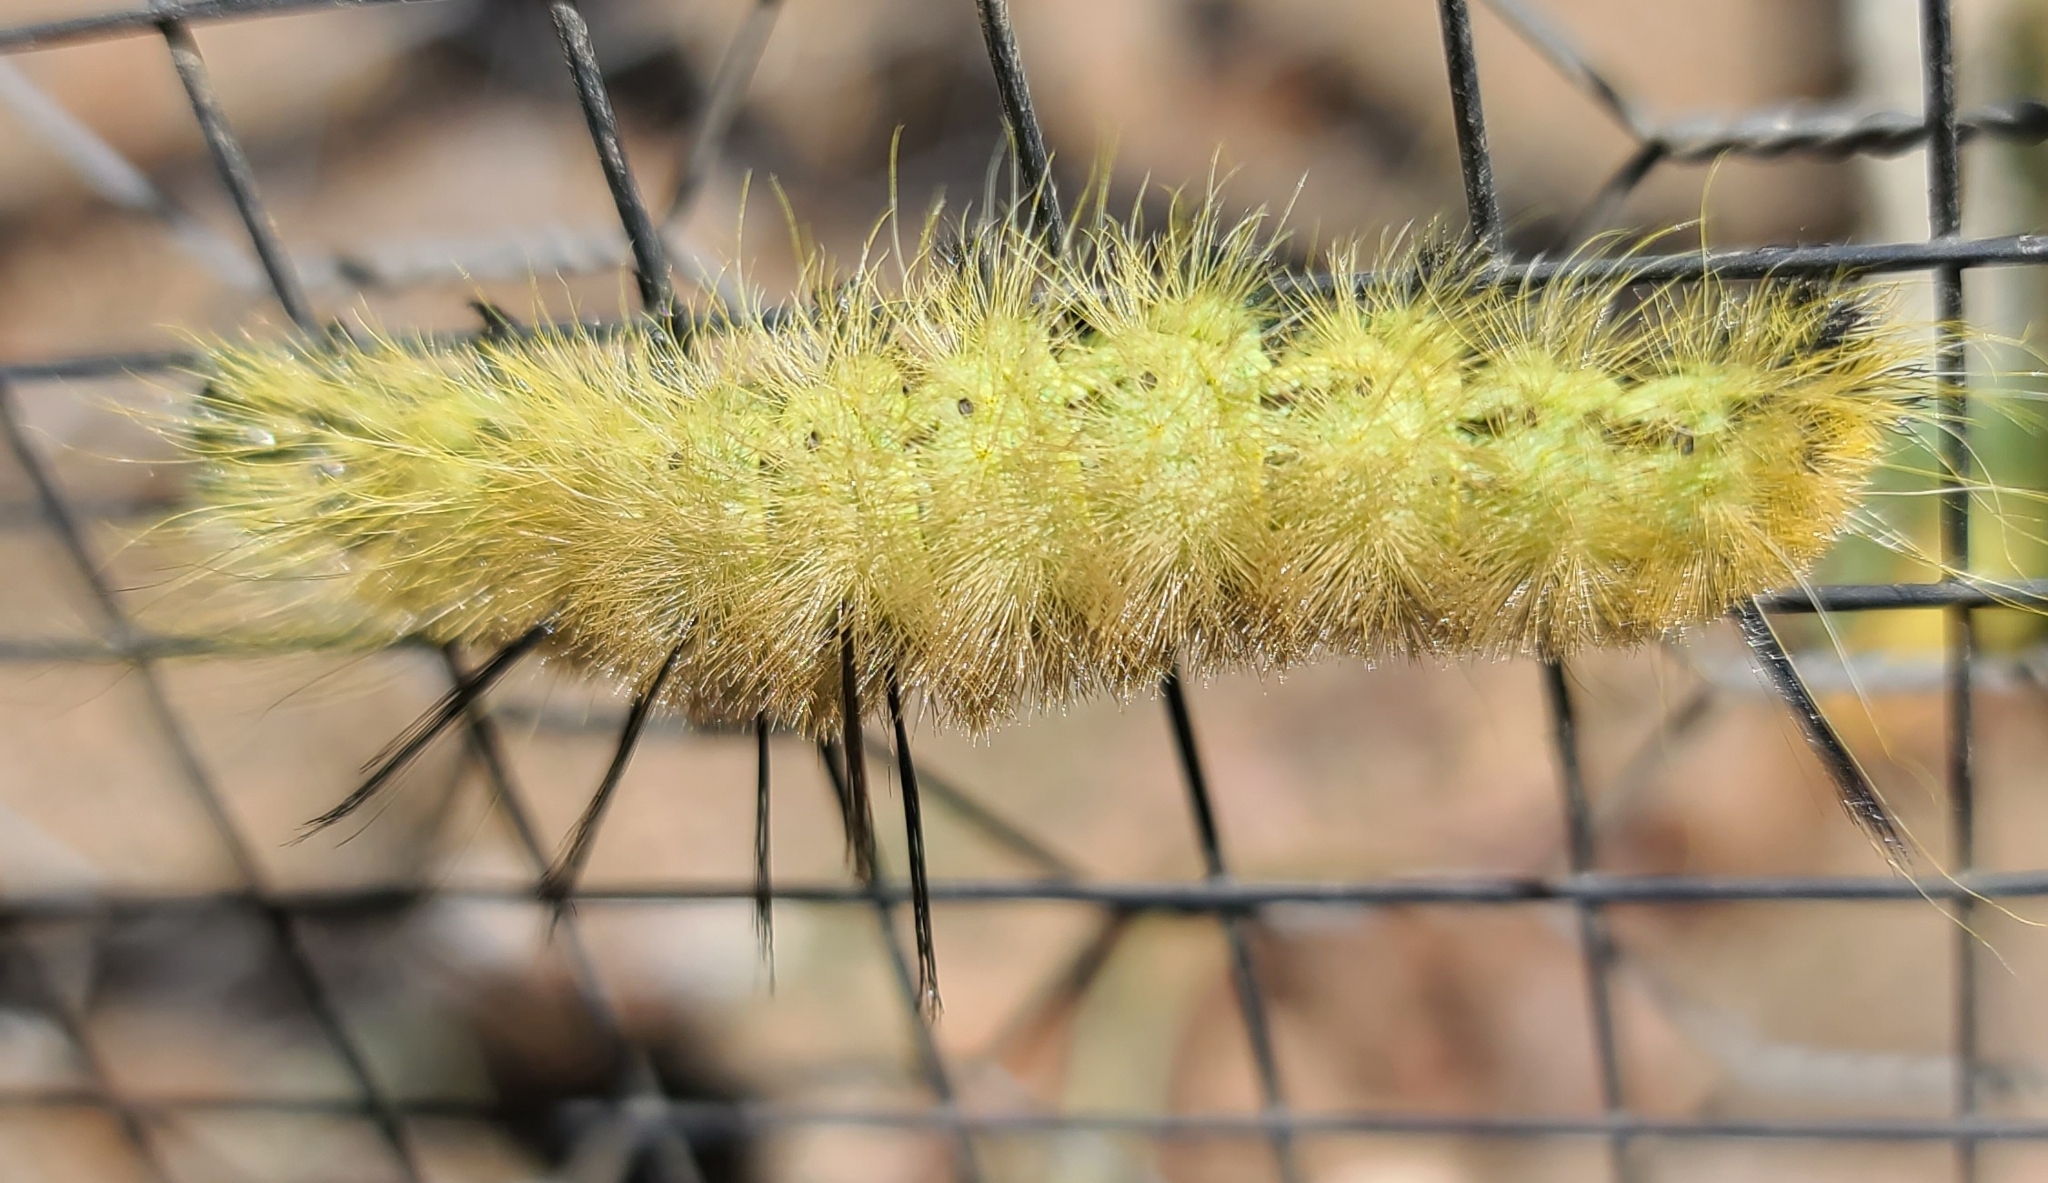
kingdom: Animalia
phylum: Arthropoda
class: Insecta
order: Lepidoptera
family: Noctuidae
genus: Acronicta
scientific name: Acronicta americana
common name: American dagger
